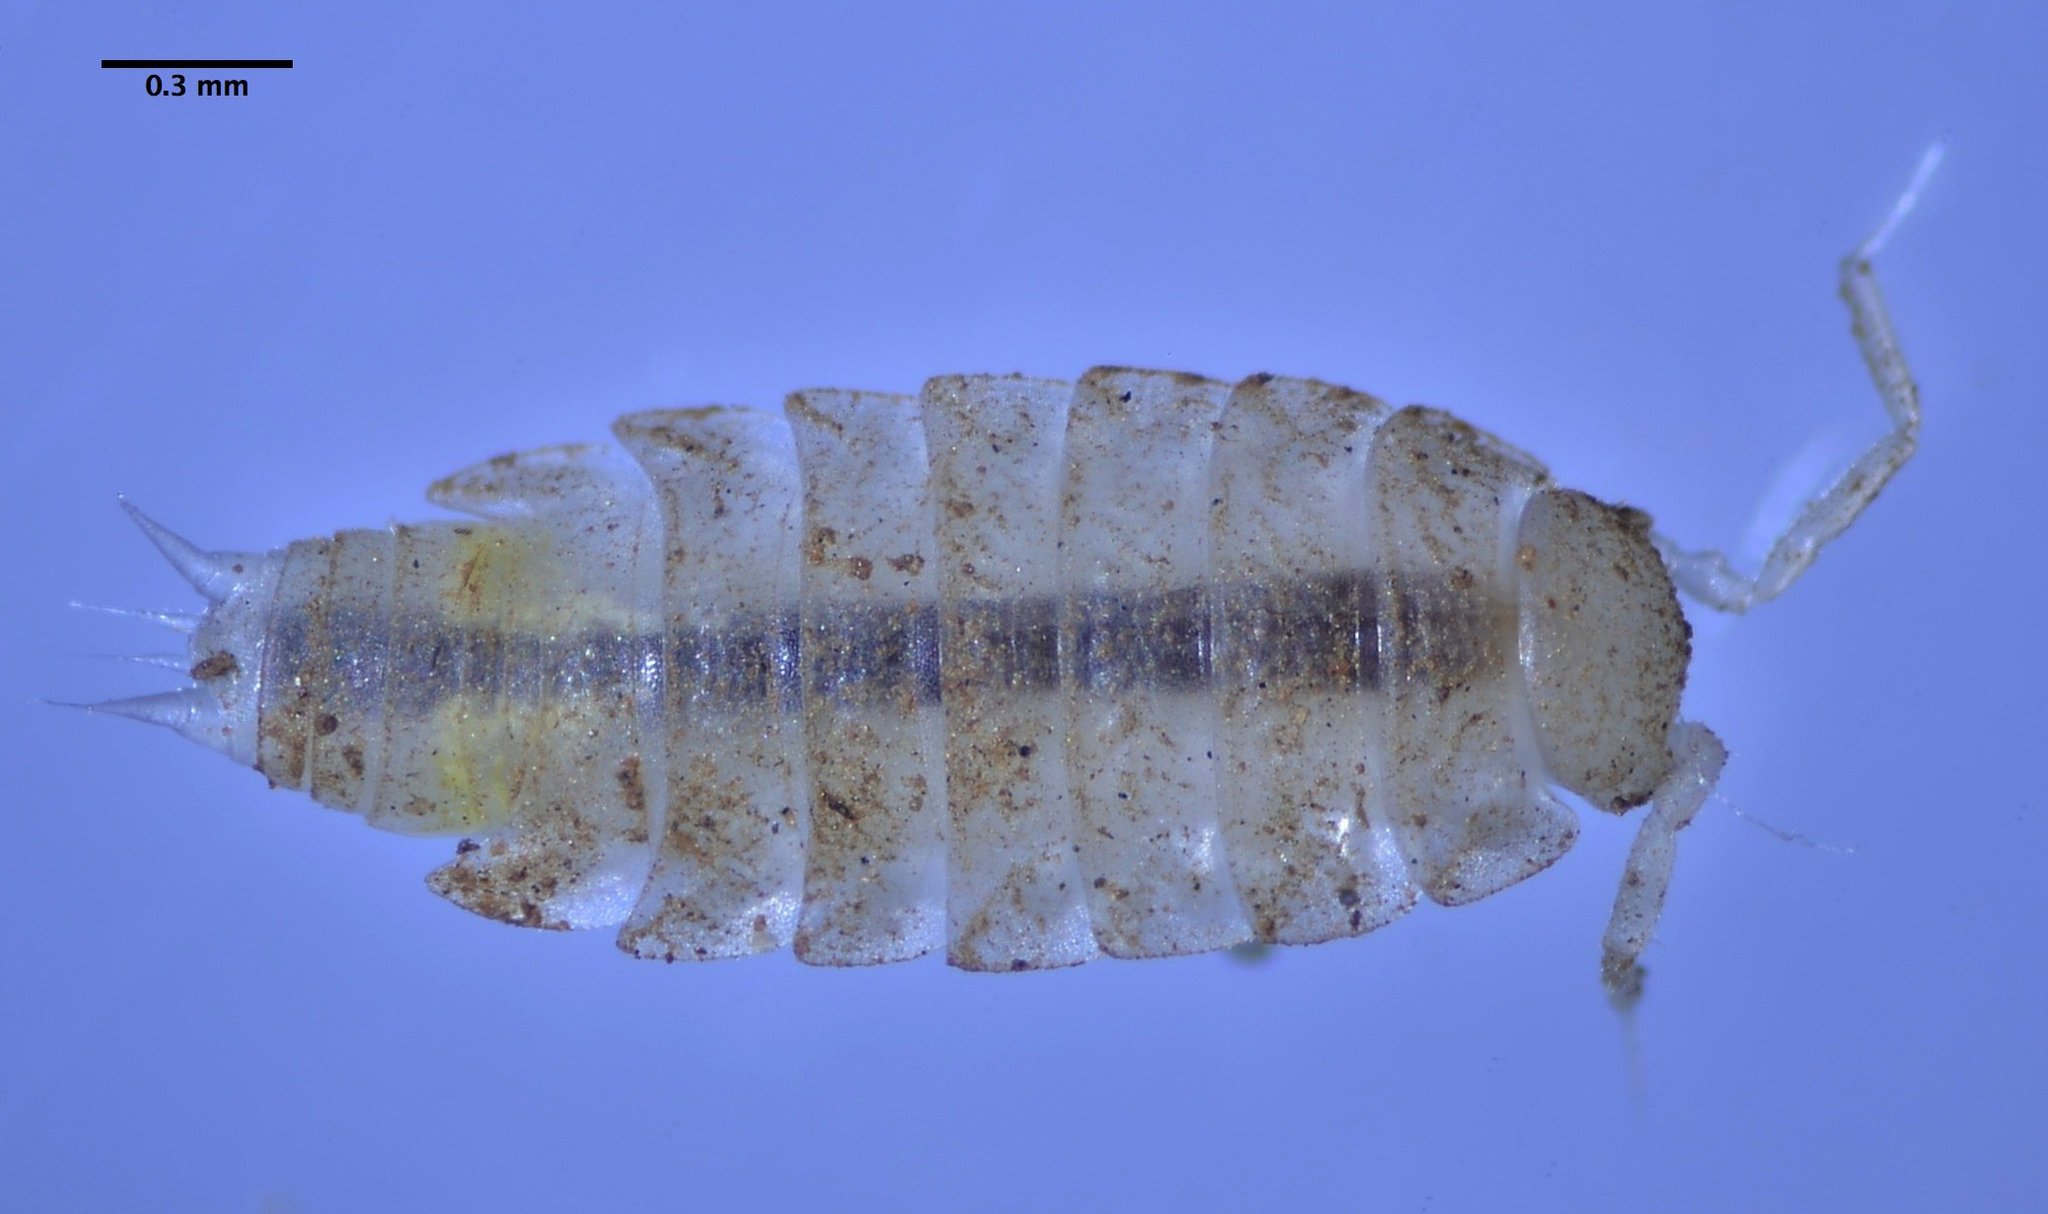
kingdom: Animalia
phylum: Arthropoda
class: Malacostraca
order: Isopoda
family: Trichoniscidae
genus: Brackenridgia
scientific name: Brackenridgia heroldi
